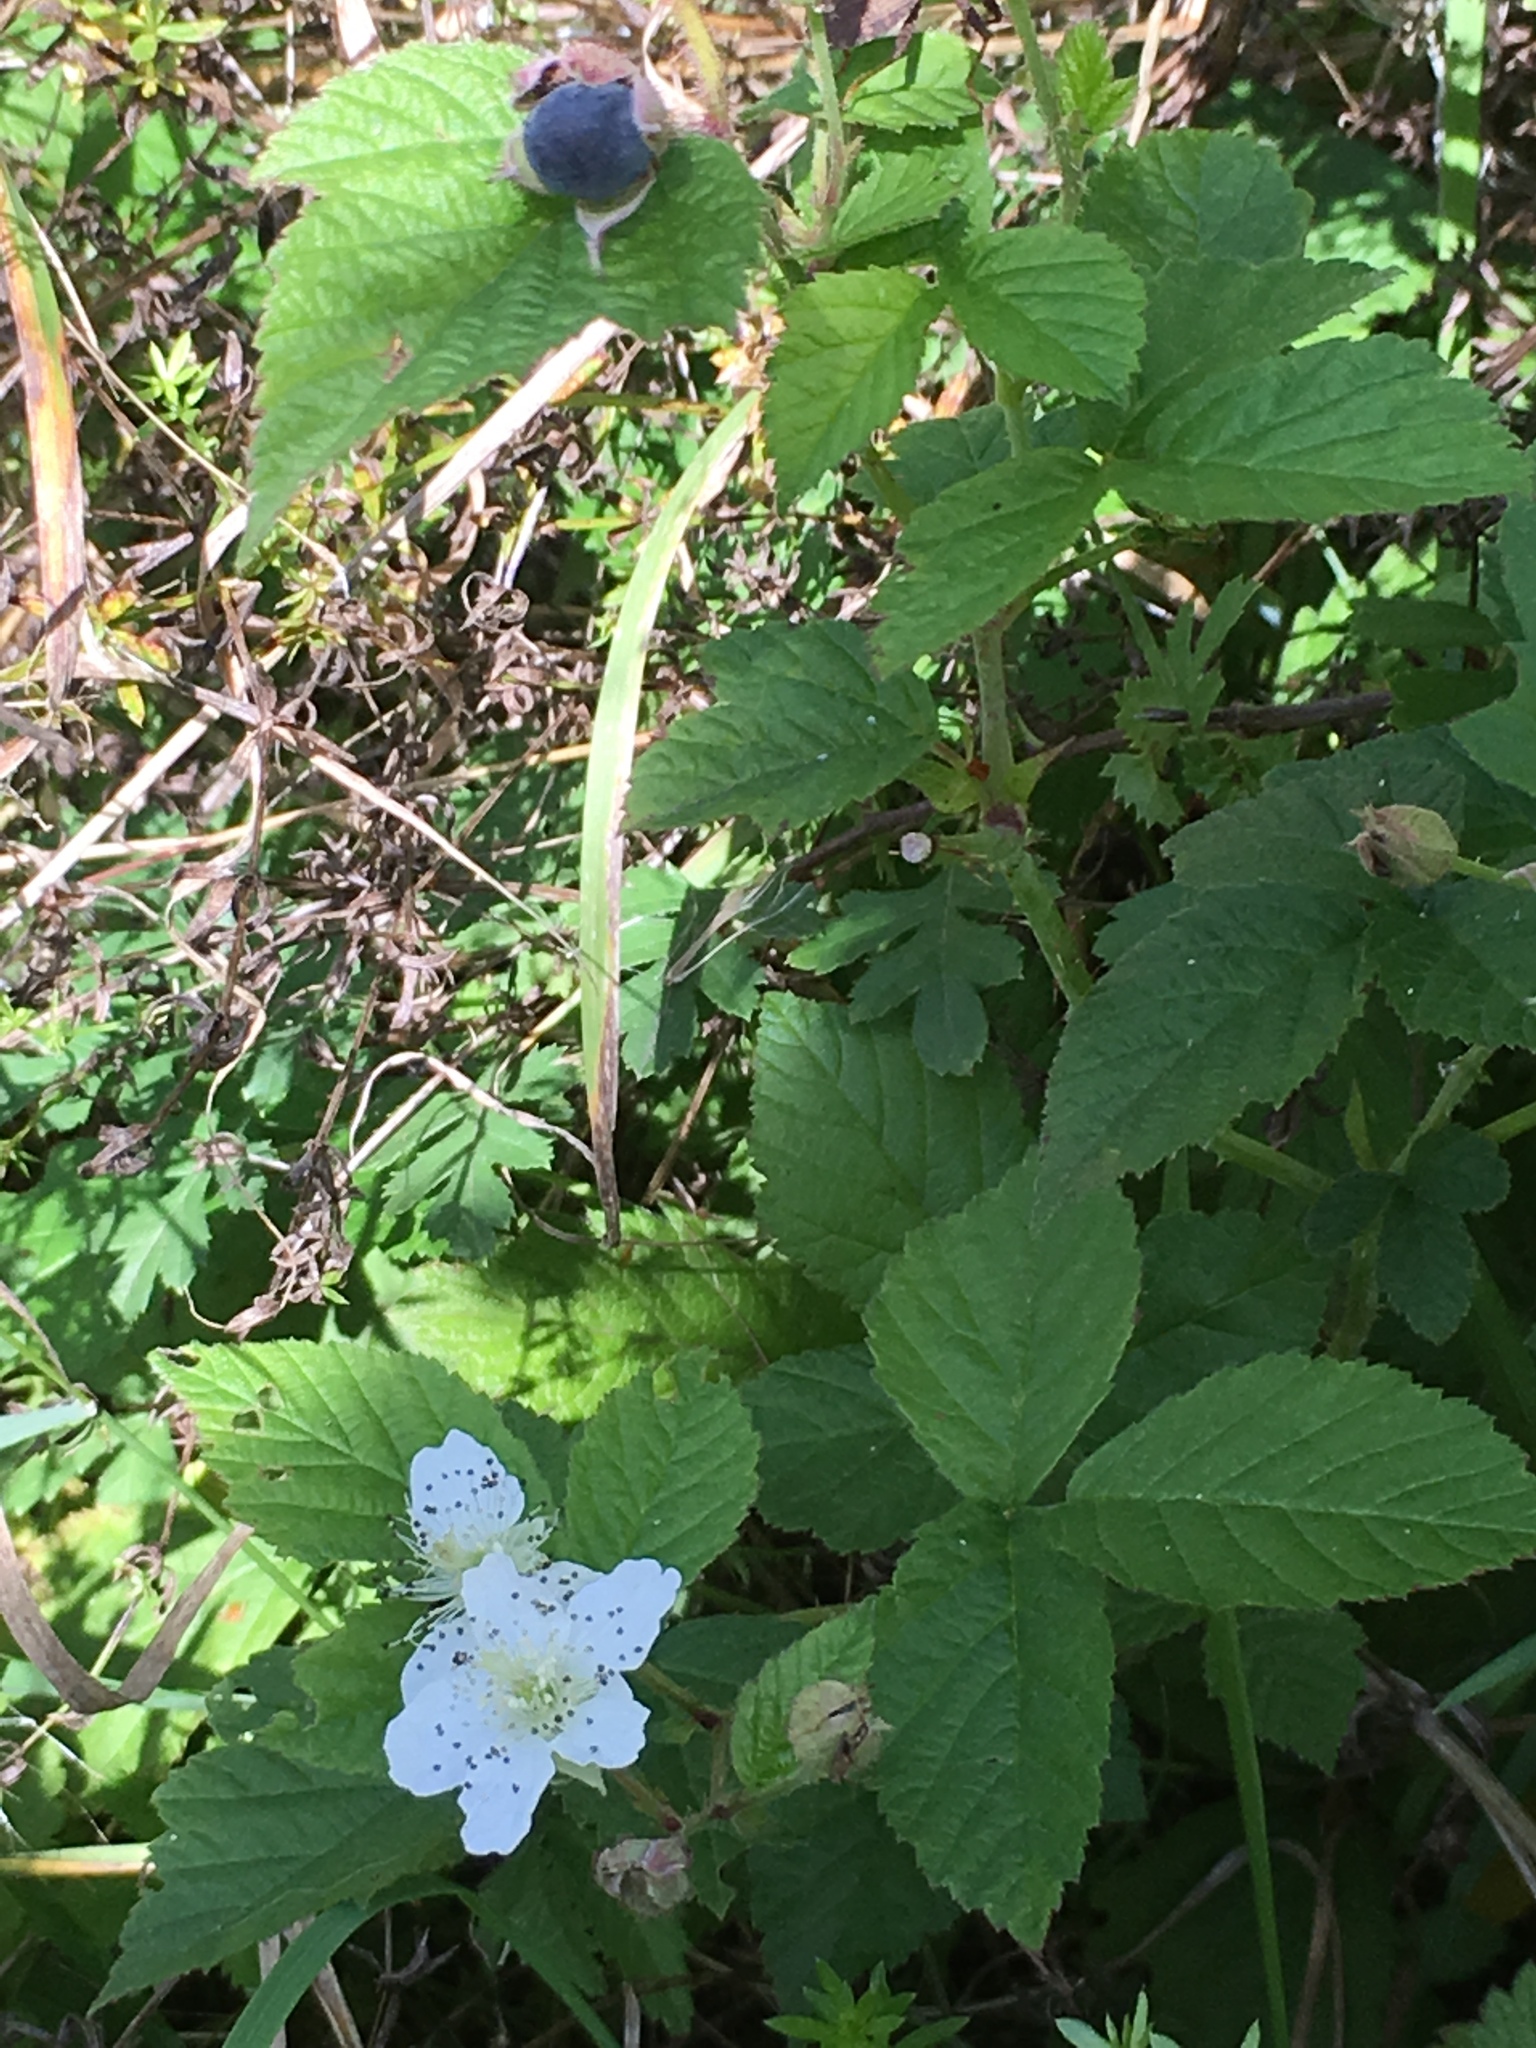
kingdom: Plantae
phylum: Tracheophyta
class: Magnoliopsida
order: Rosales
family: Rosaceae
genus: Rubus
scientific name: Rubus caesius
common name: Dewberry
